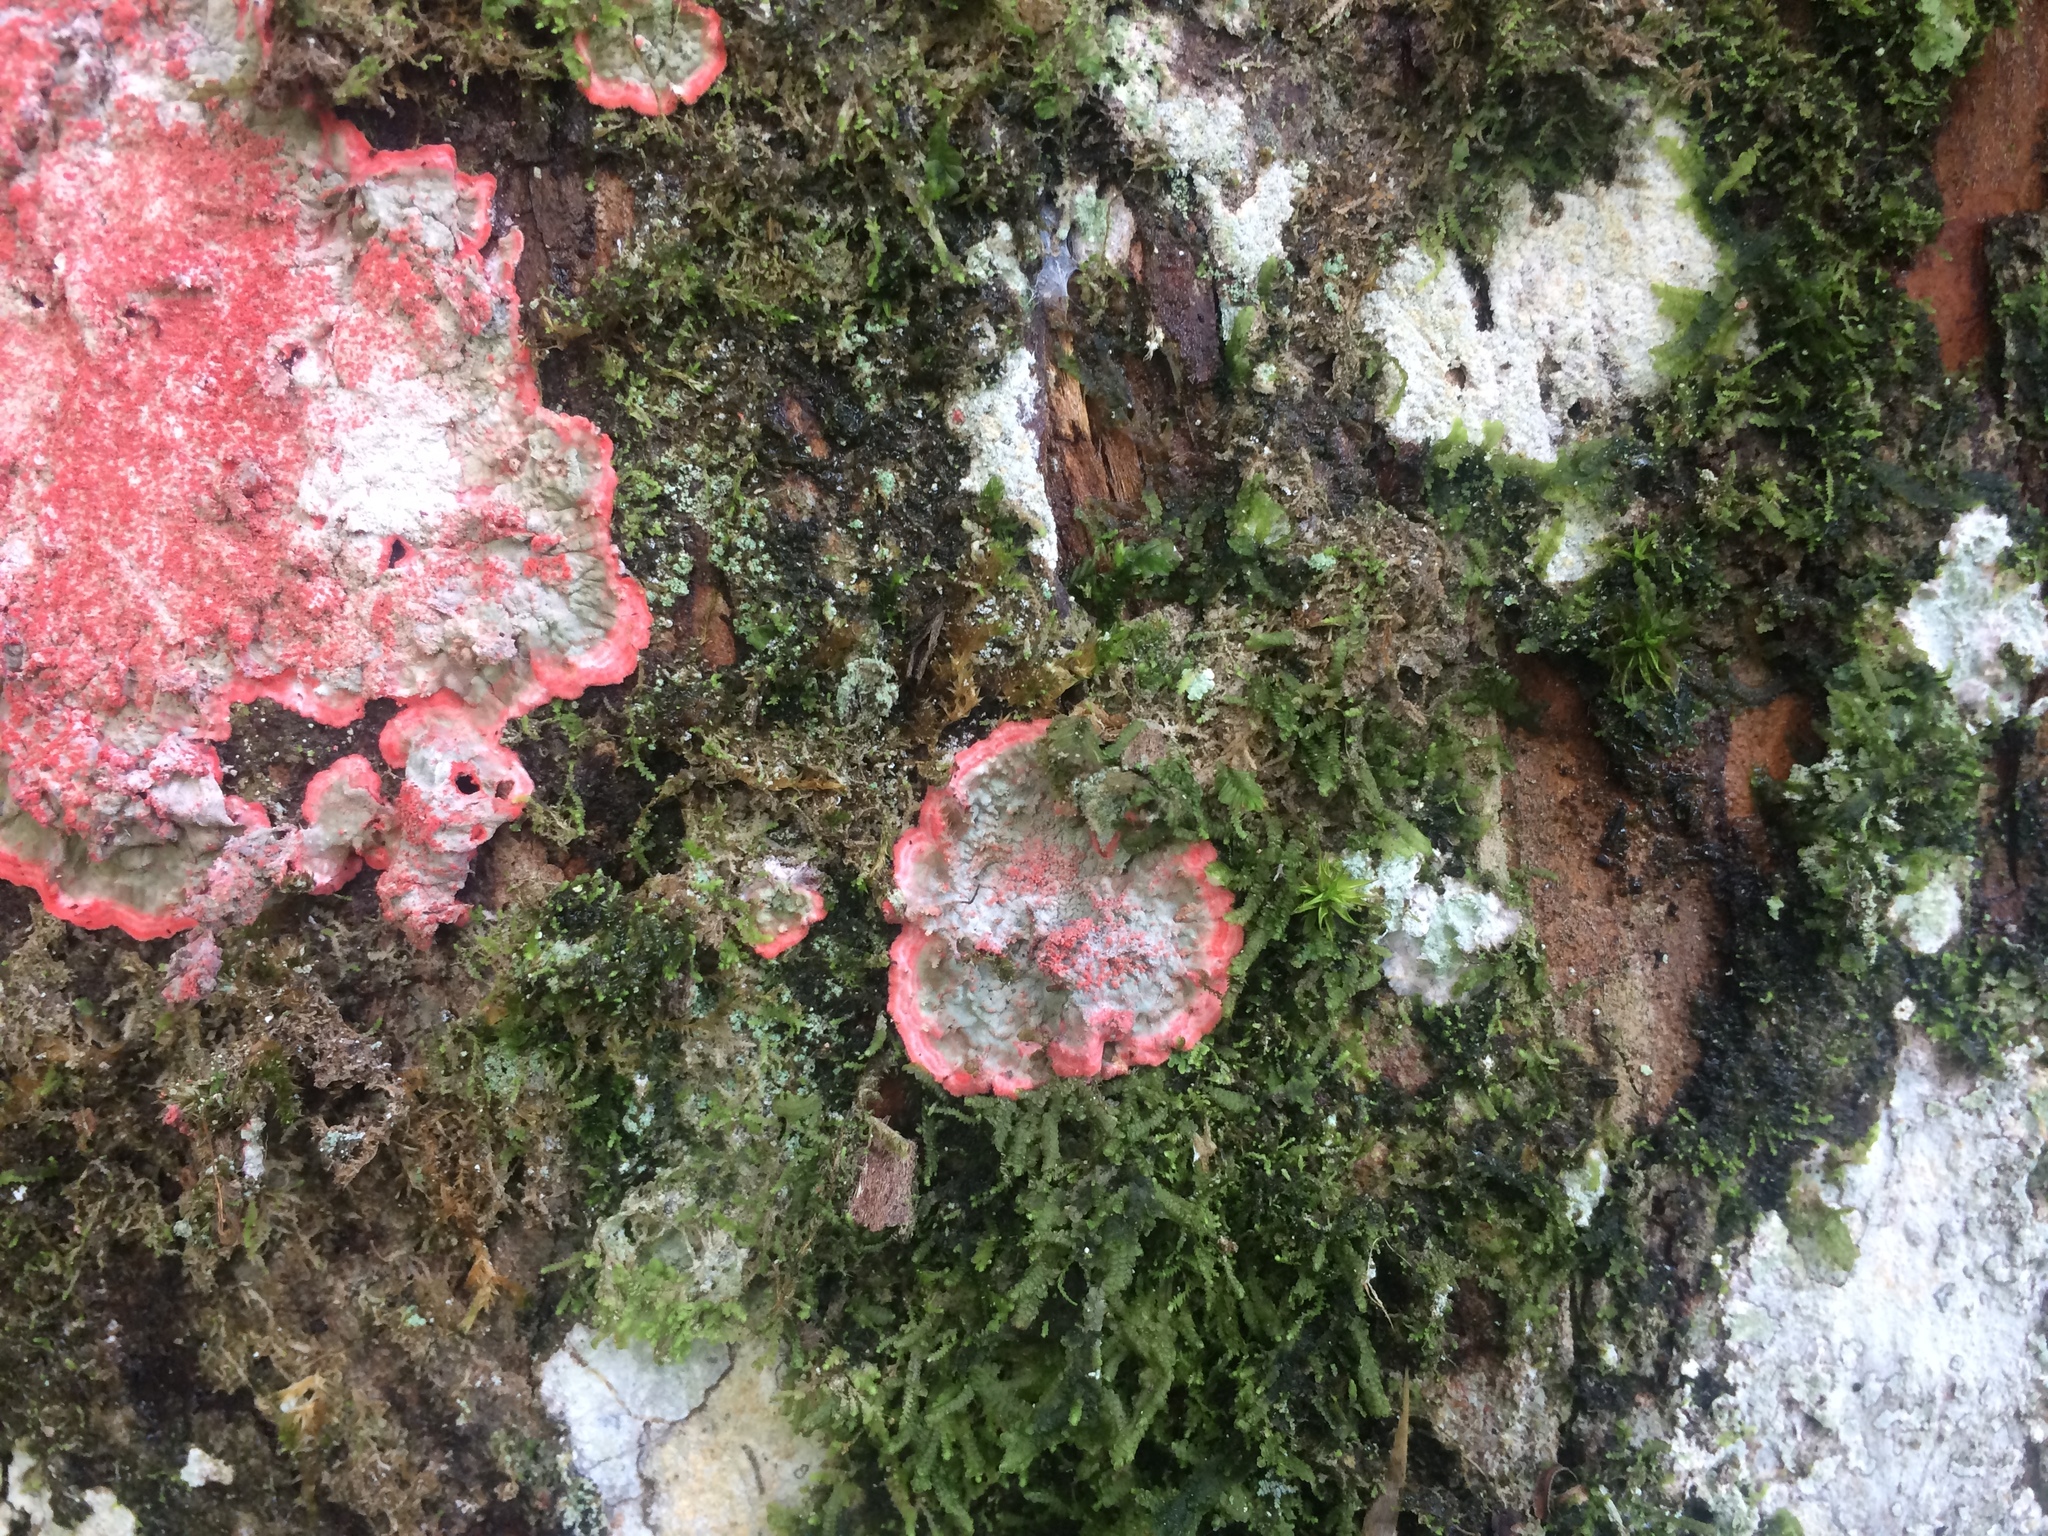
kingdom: Fungi
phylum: Ascomycota
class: Arthoniomycetes
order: Arthoniales
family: Arthoniaceae
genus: Herpothallon
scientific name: Herpothallon rubrocinctum
